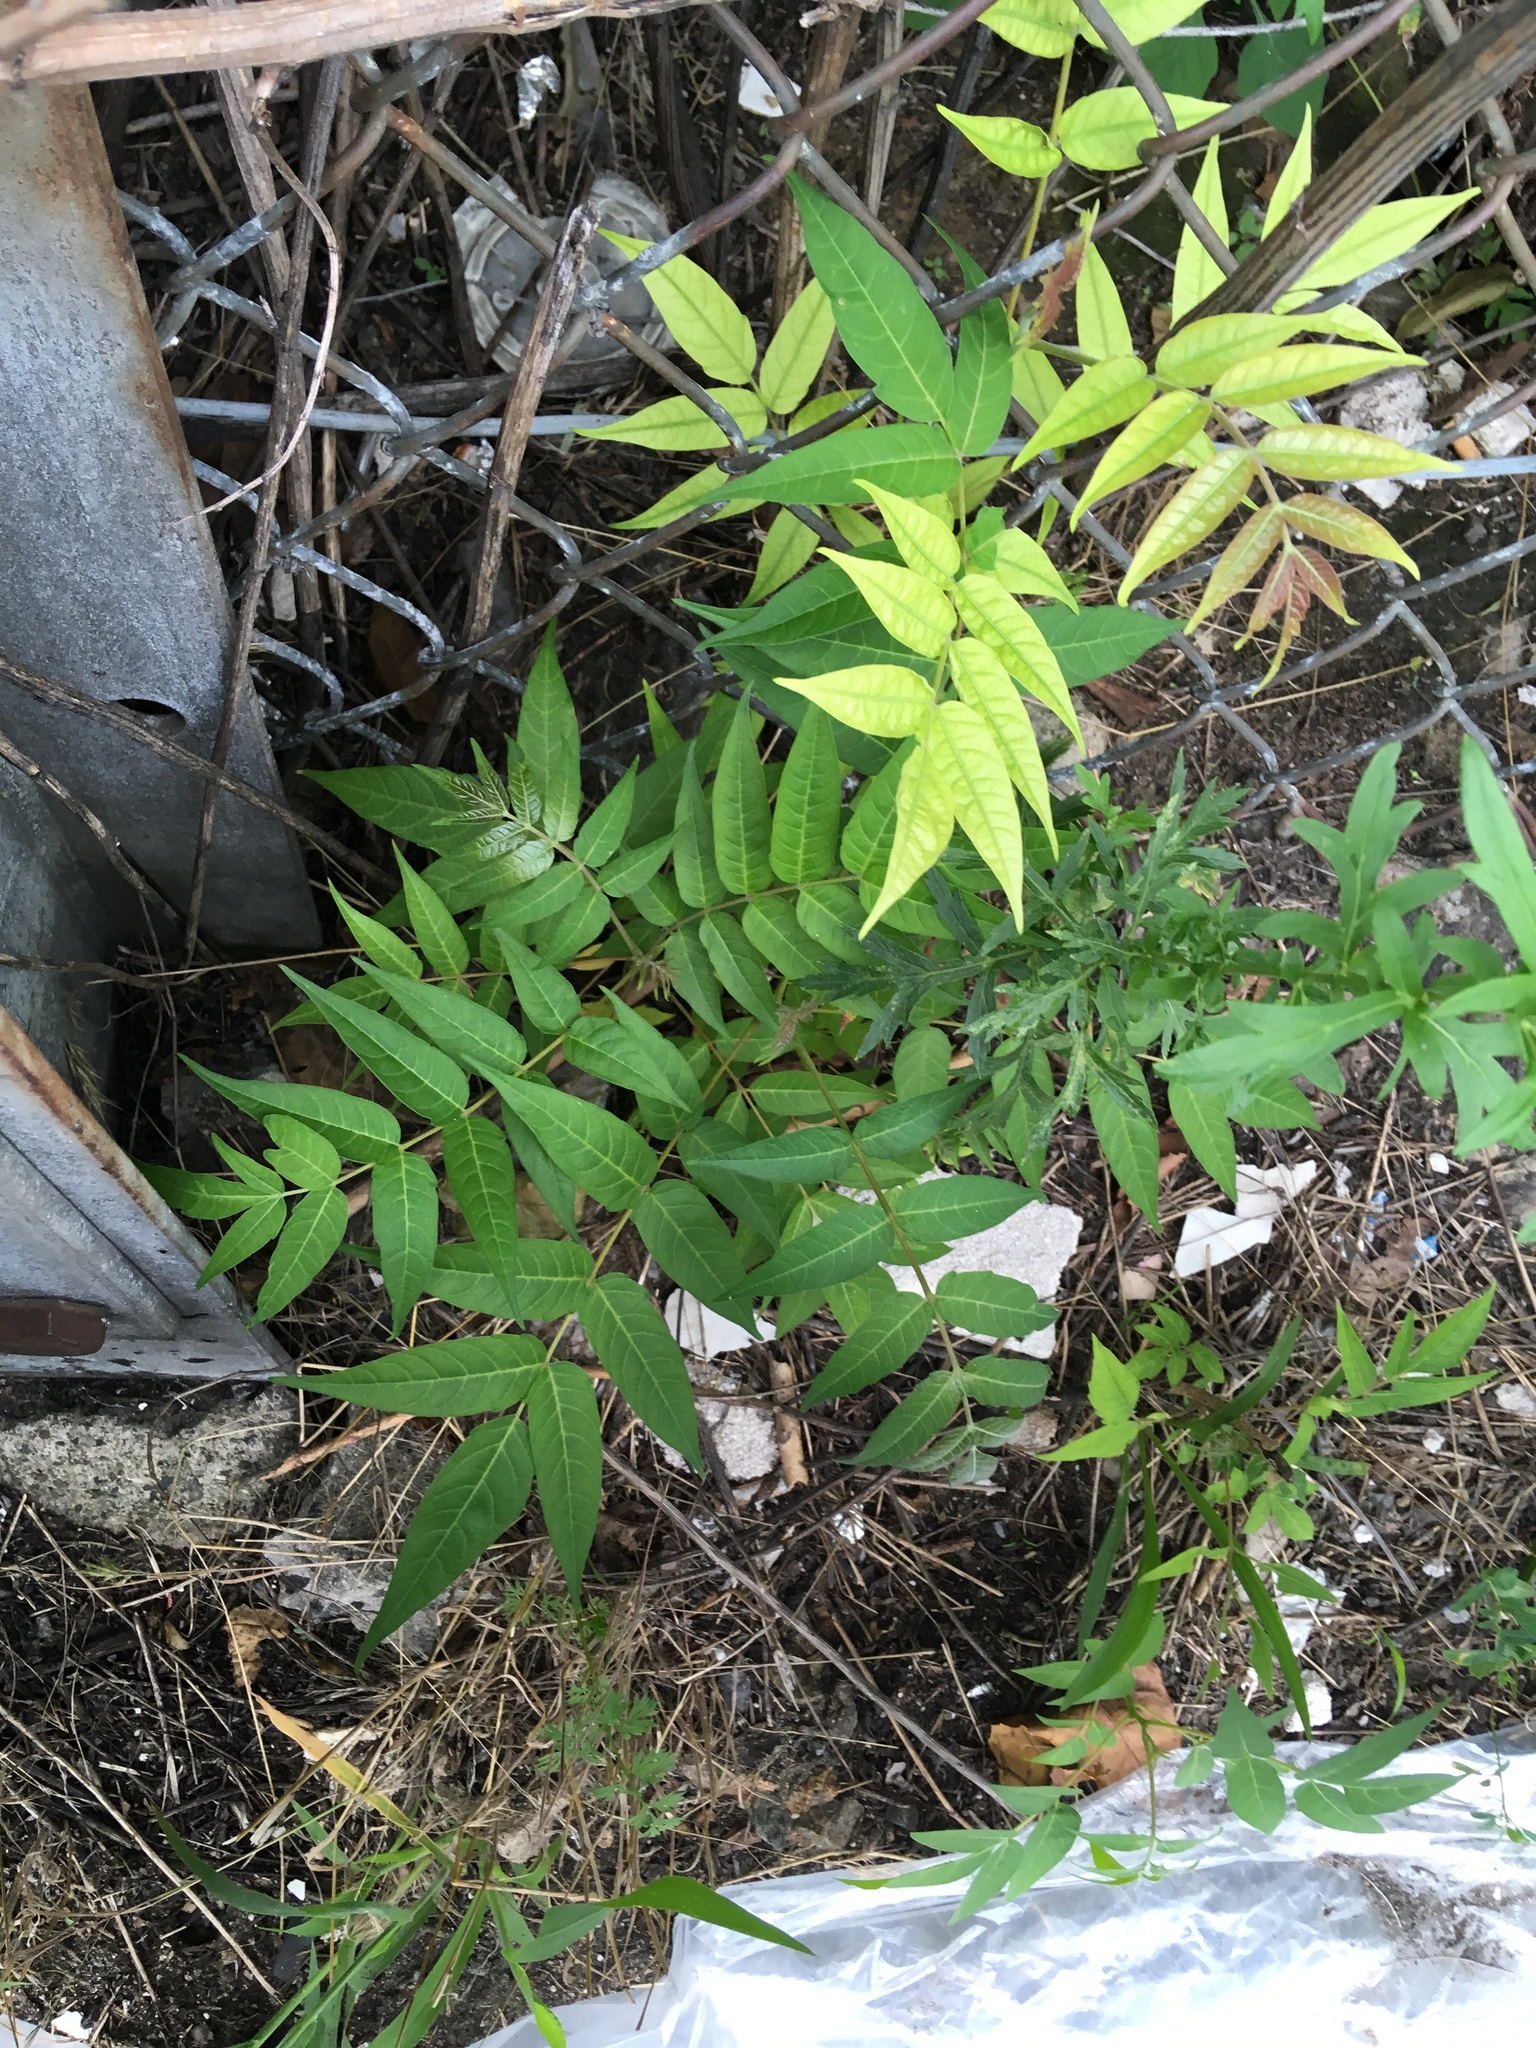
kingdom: Plantae
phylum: Tracheophyta
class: Magnoliopsida
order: Sapindales
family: Simaroubaceae
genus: Ailanthus
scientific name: Ailanthus altissima
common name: Tree-of-heaven
